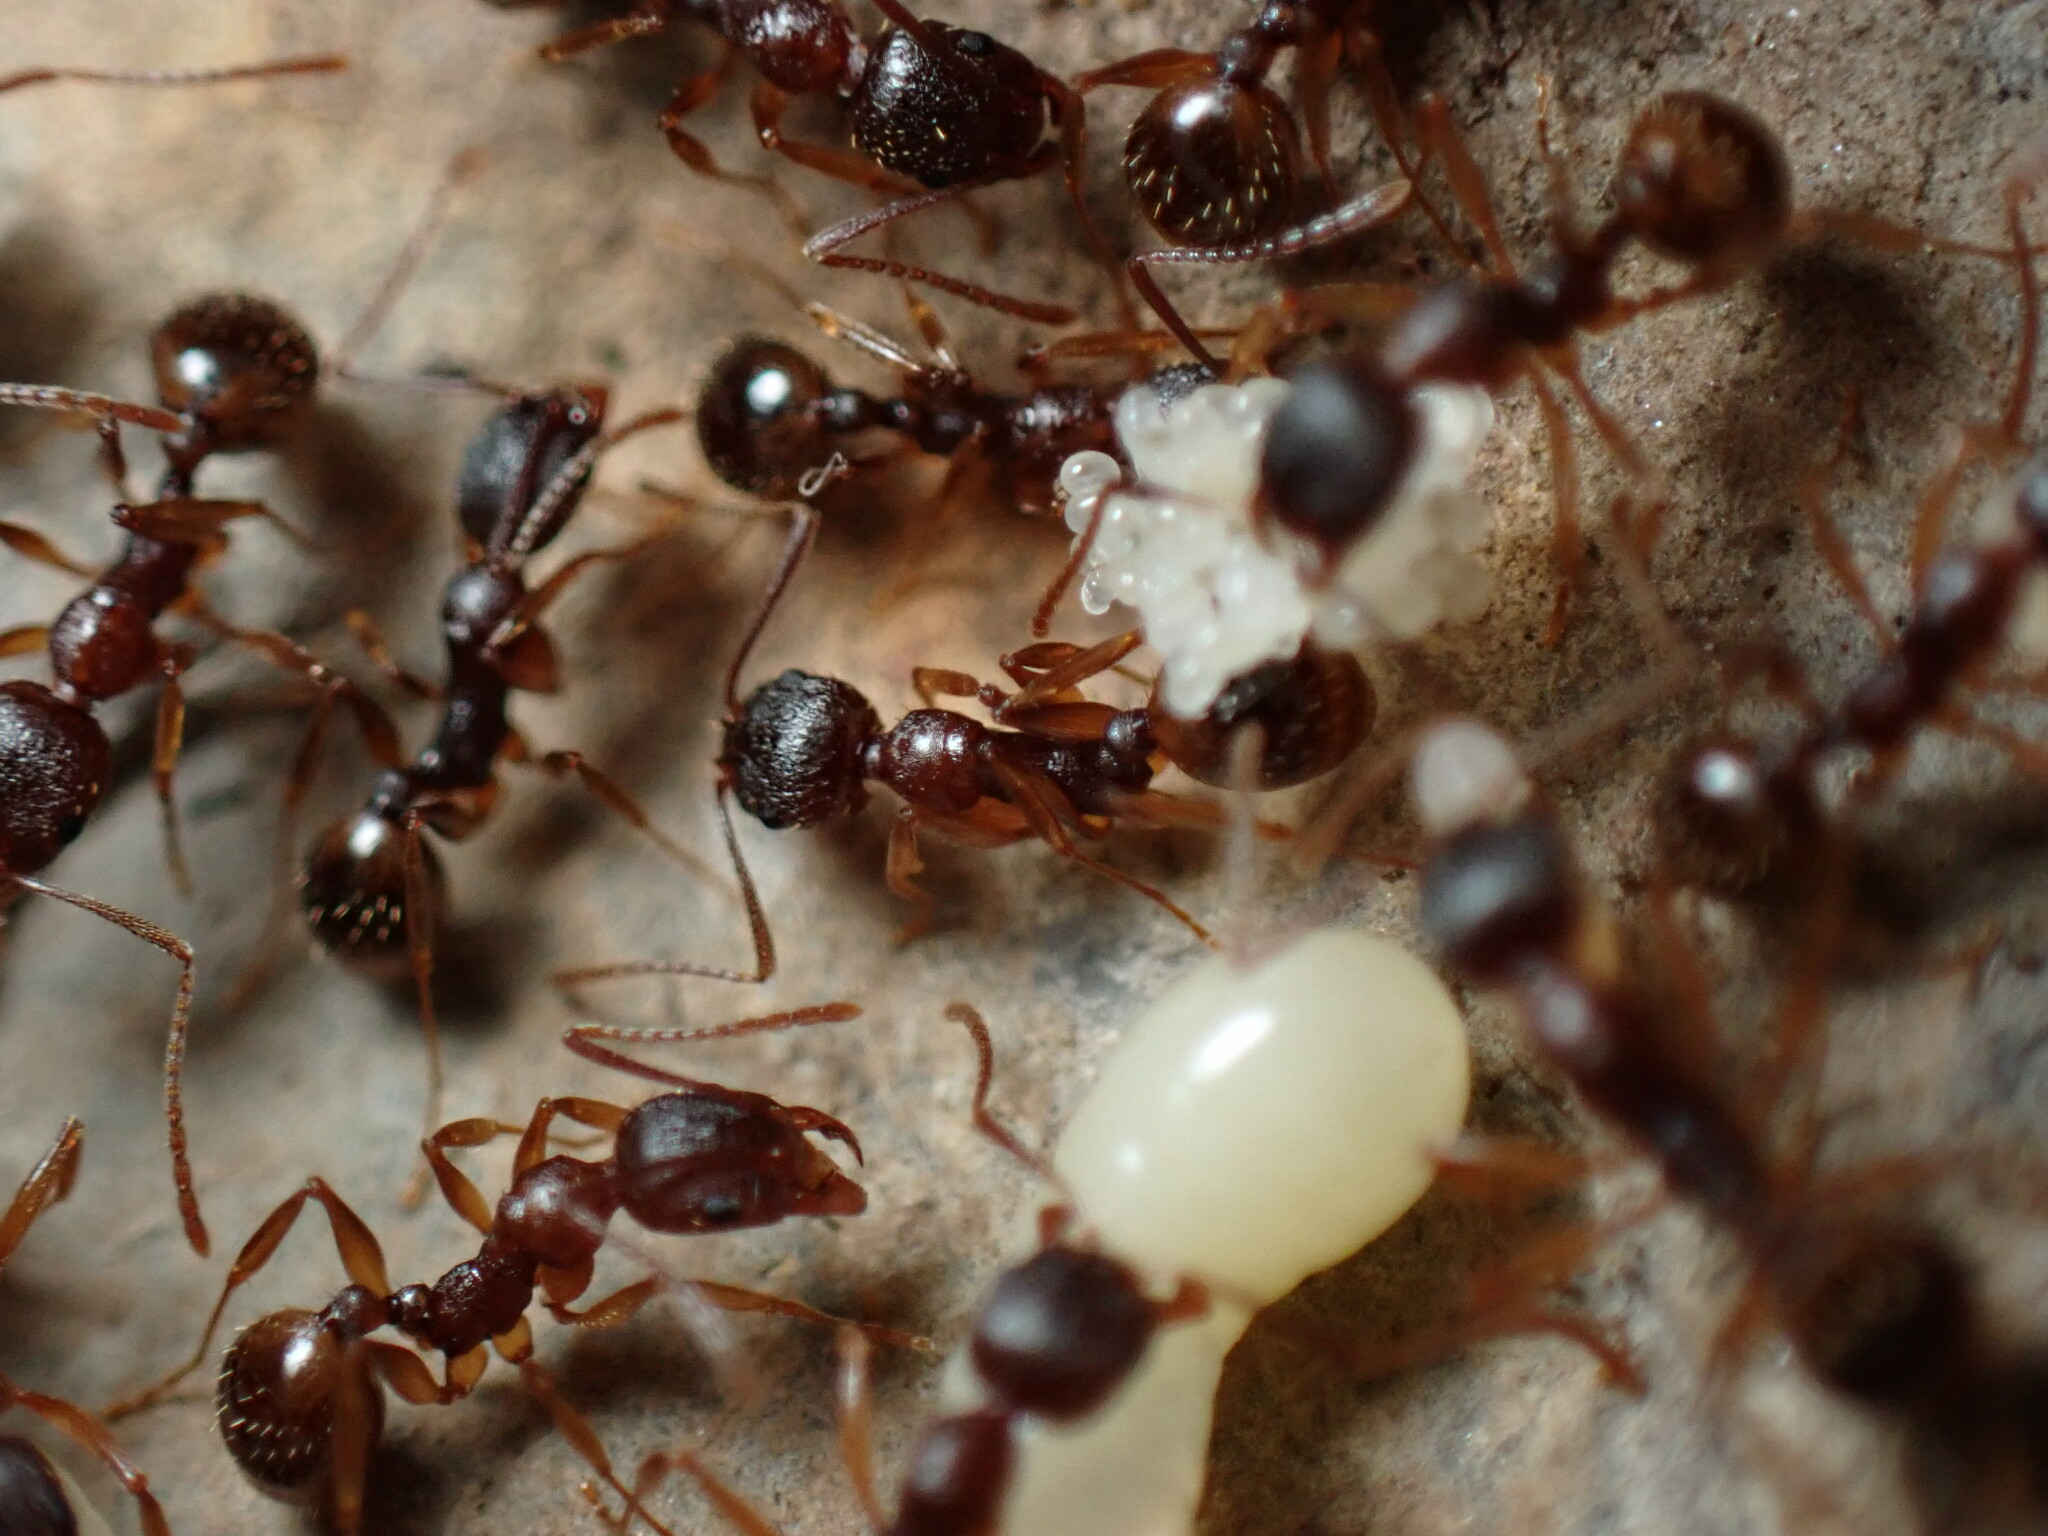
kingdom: Animalia
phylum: Arthropoda
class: Insecta
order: Hymenoptera
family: Formicidae
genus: Aphaenogaster
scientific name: Aphaenogaster rudis
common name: Winnow ant
